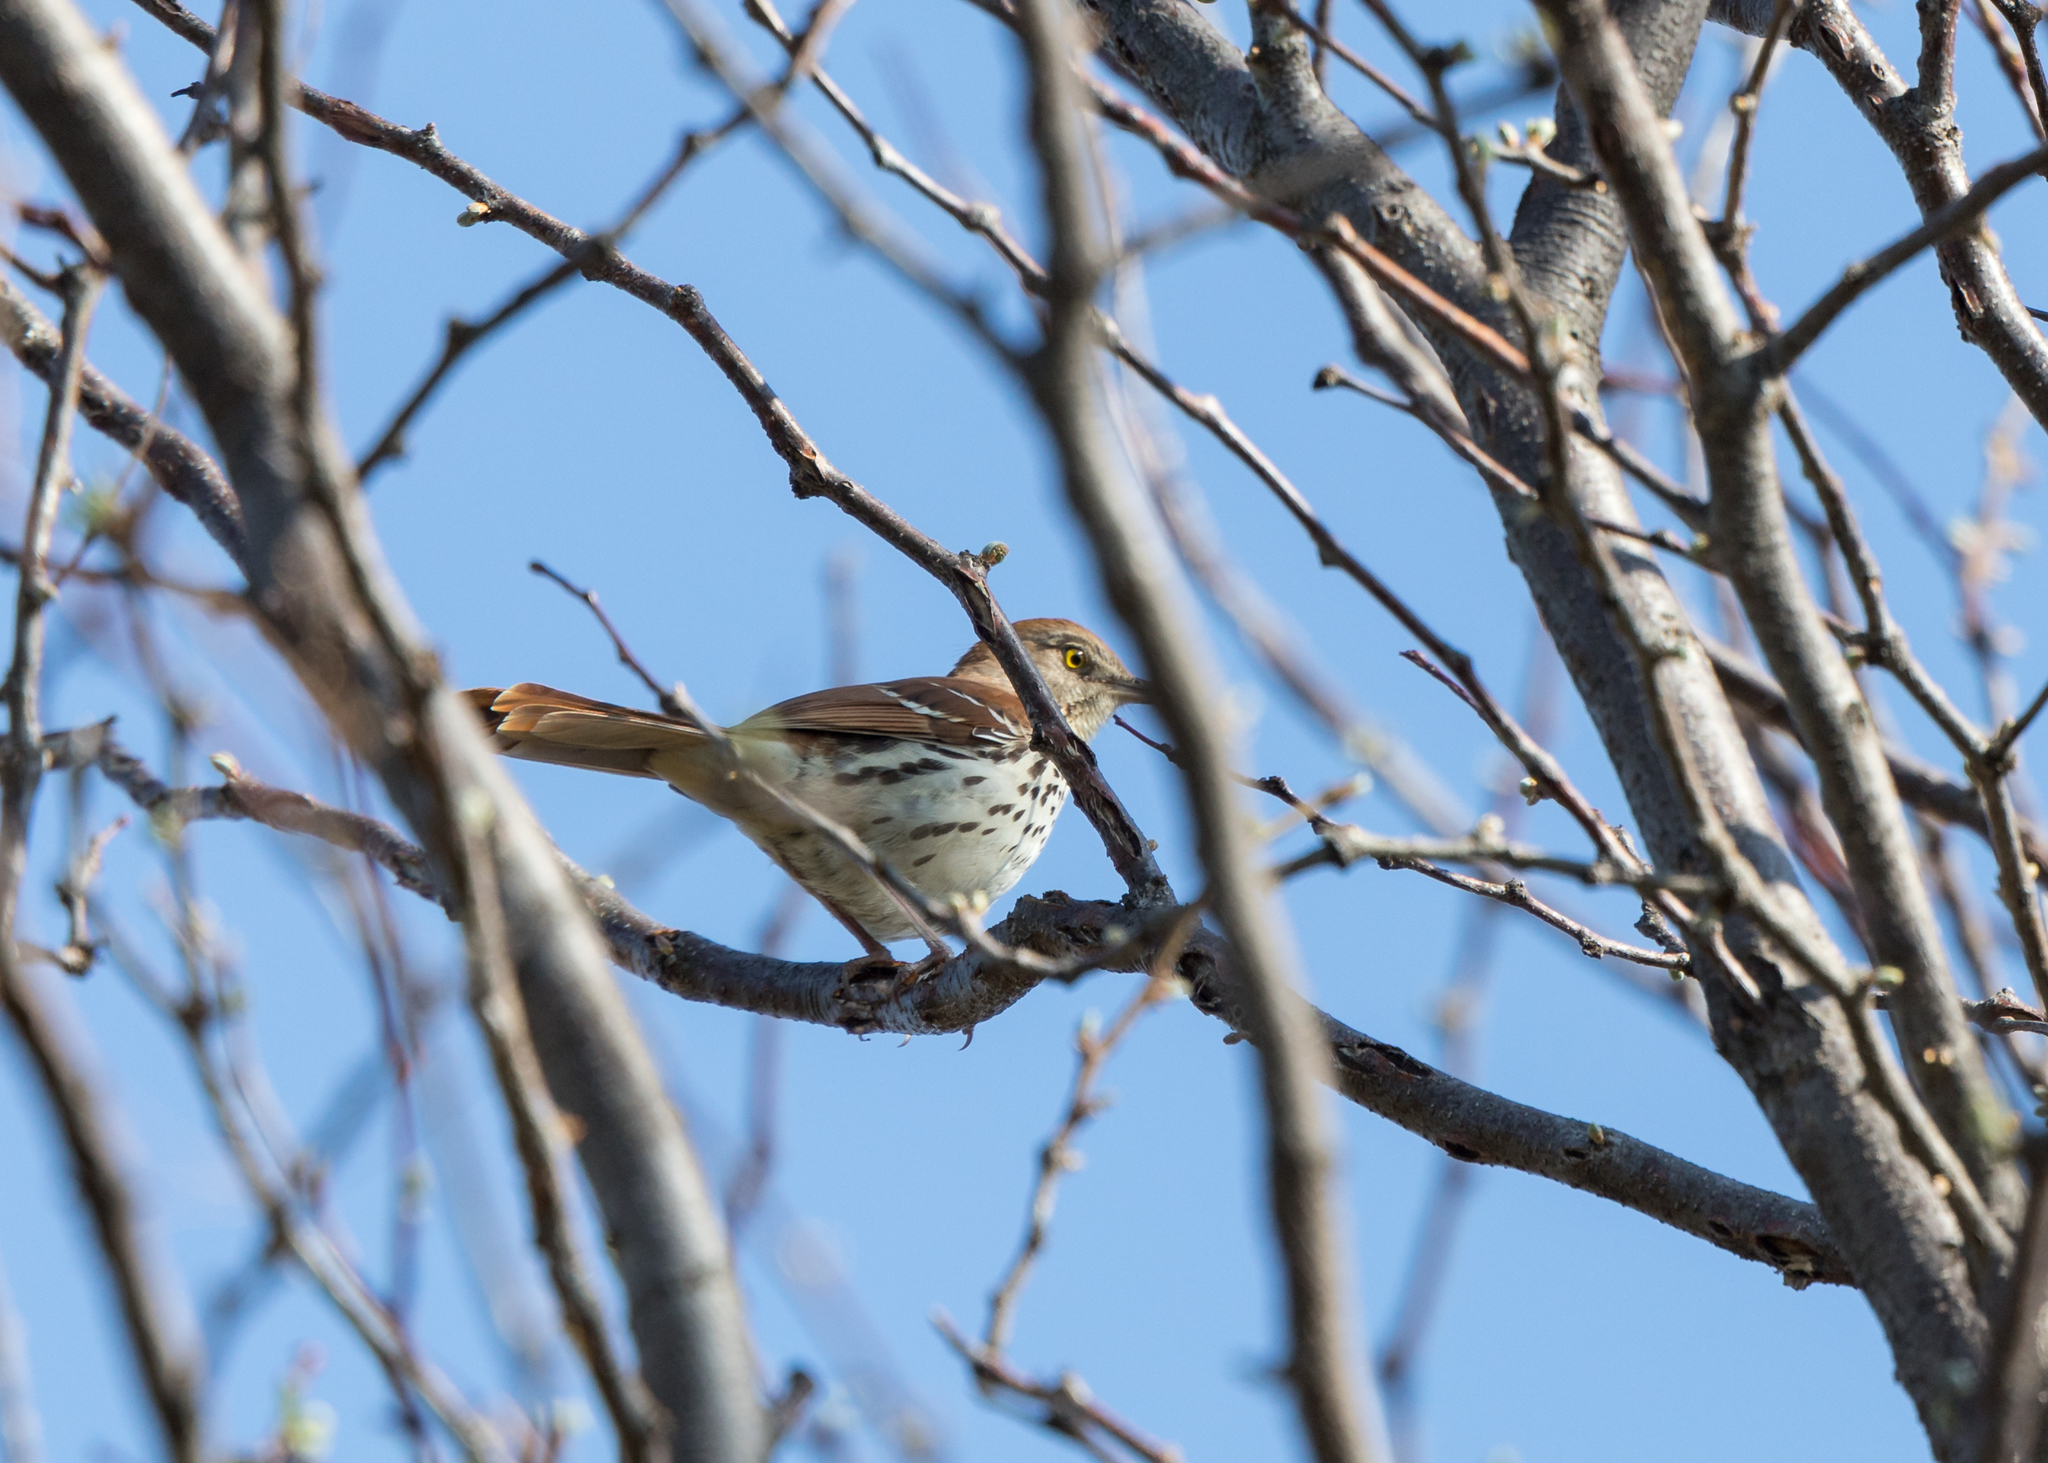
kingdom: Animalia
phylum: Chordata
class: Aves
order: Passeriformes
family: Mimidae
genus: Toxostoma
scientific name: Toxostoma rufum
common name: Brown thrasher
